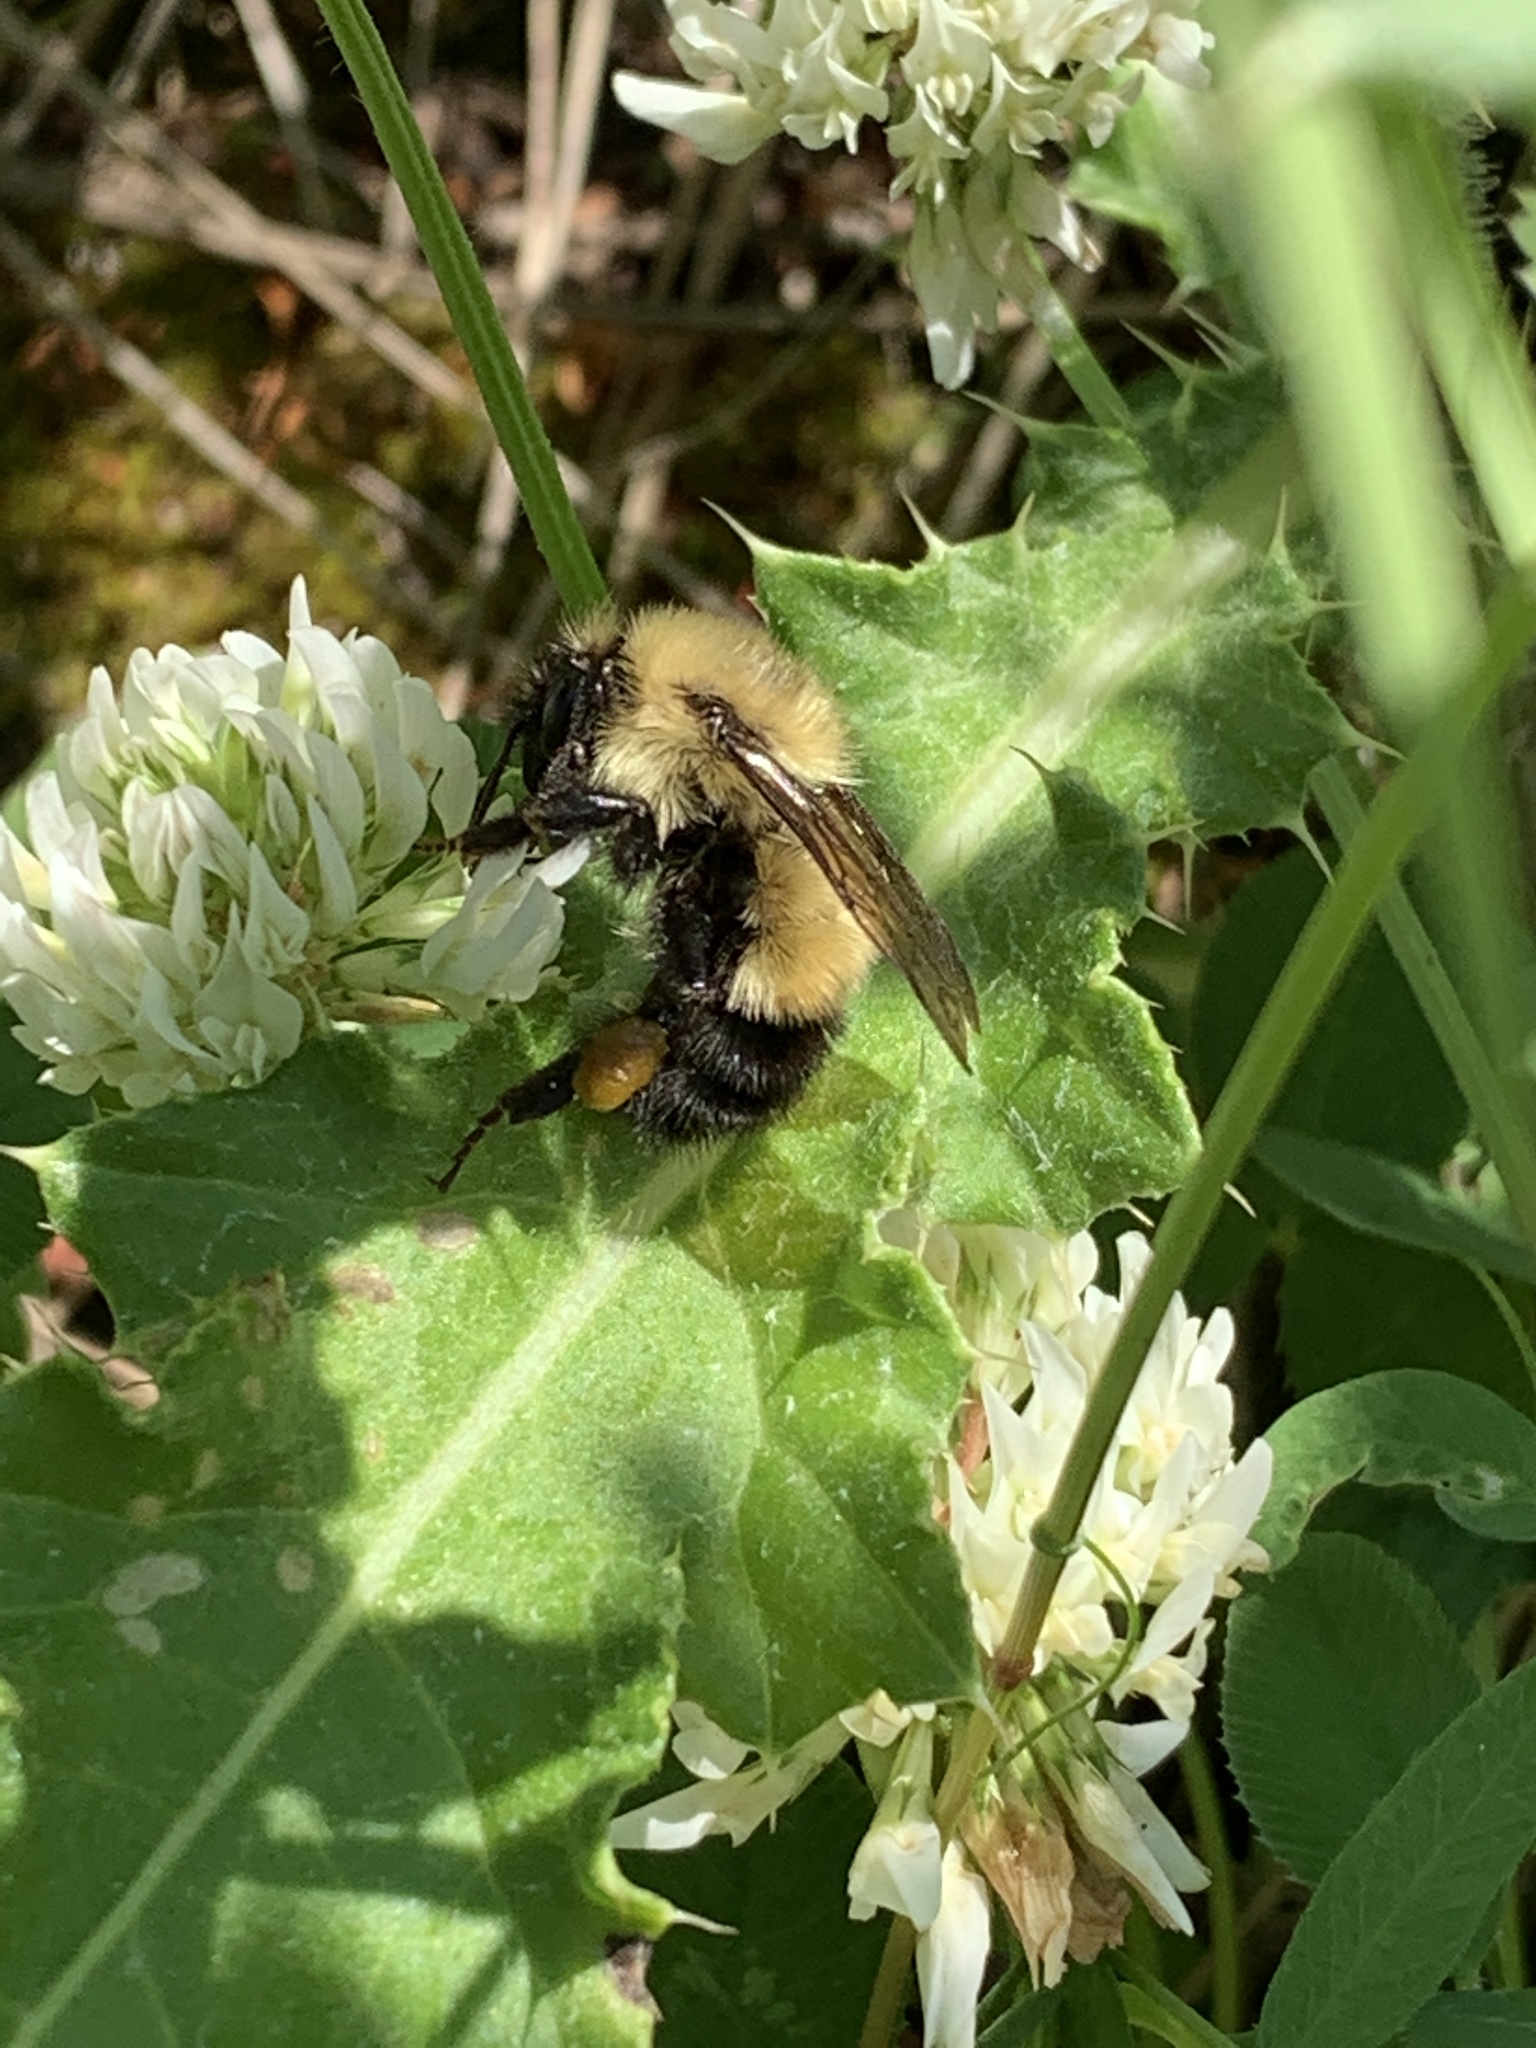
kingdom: Animalia
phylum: Arthropoda
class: Insecta
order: Hymenoptera
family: Apidae
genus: Bombus
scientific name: Bombus vagans
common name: Half-black bumble bee
